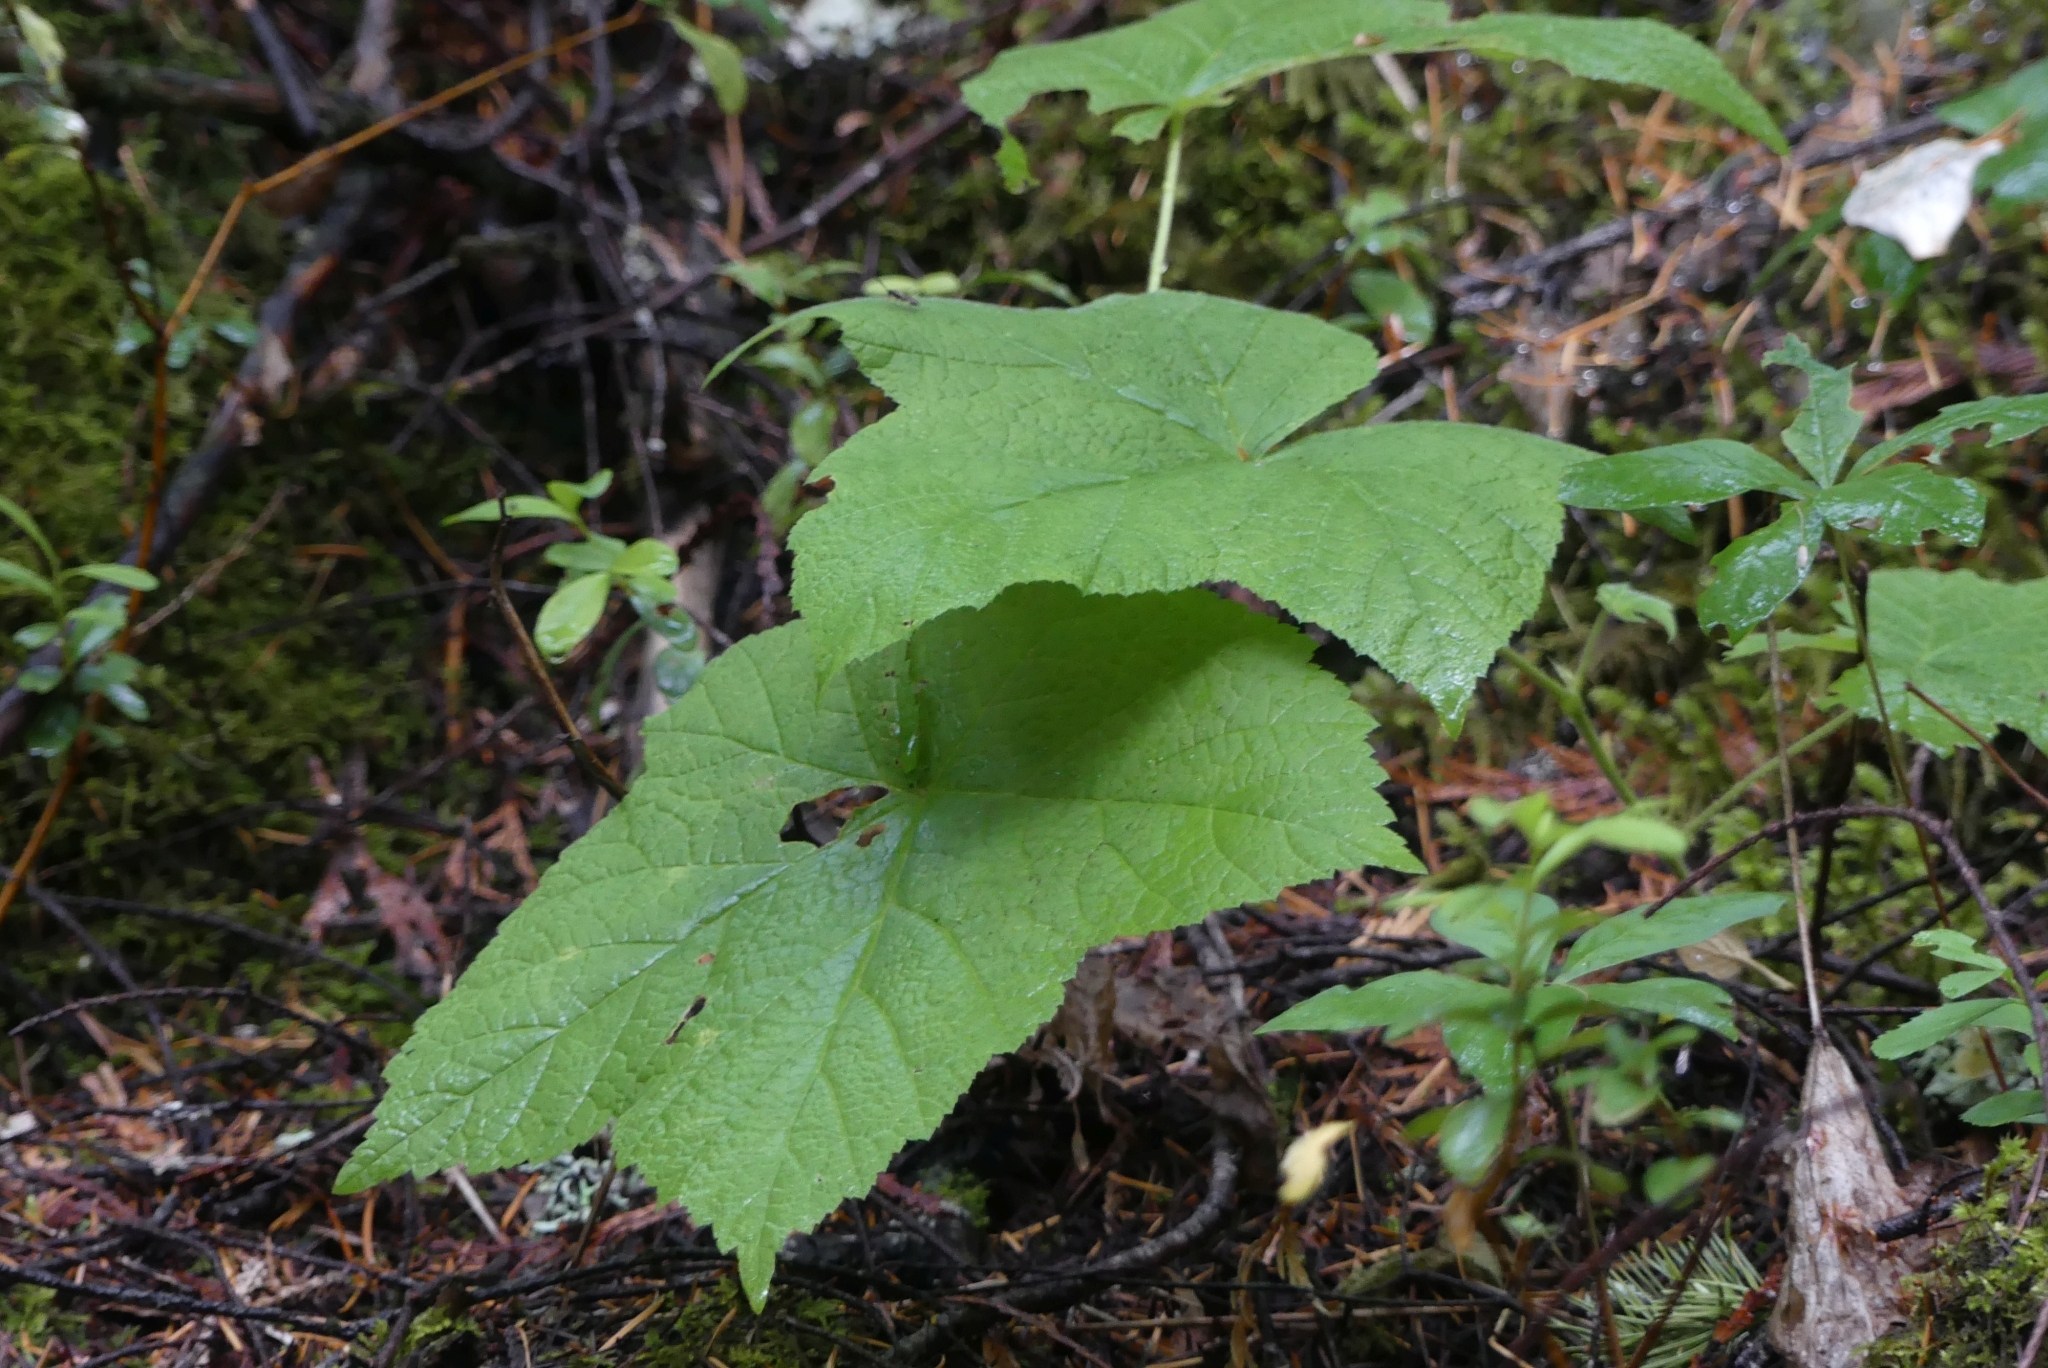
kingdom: Plantae
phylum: Tracheophyta
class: Magnoliopsida
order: Rosales
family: Rosaceae
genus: Rubus
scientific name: Rubus parviflorus
